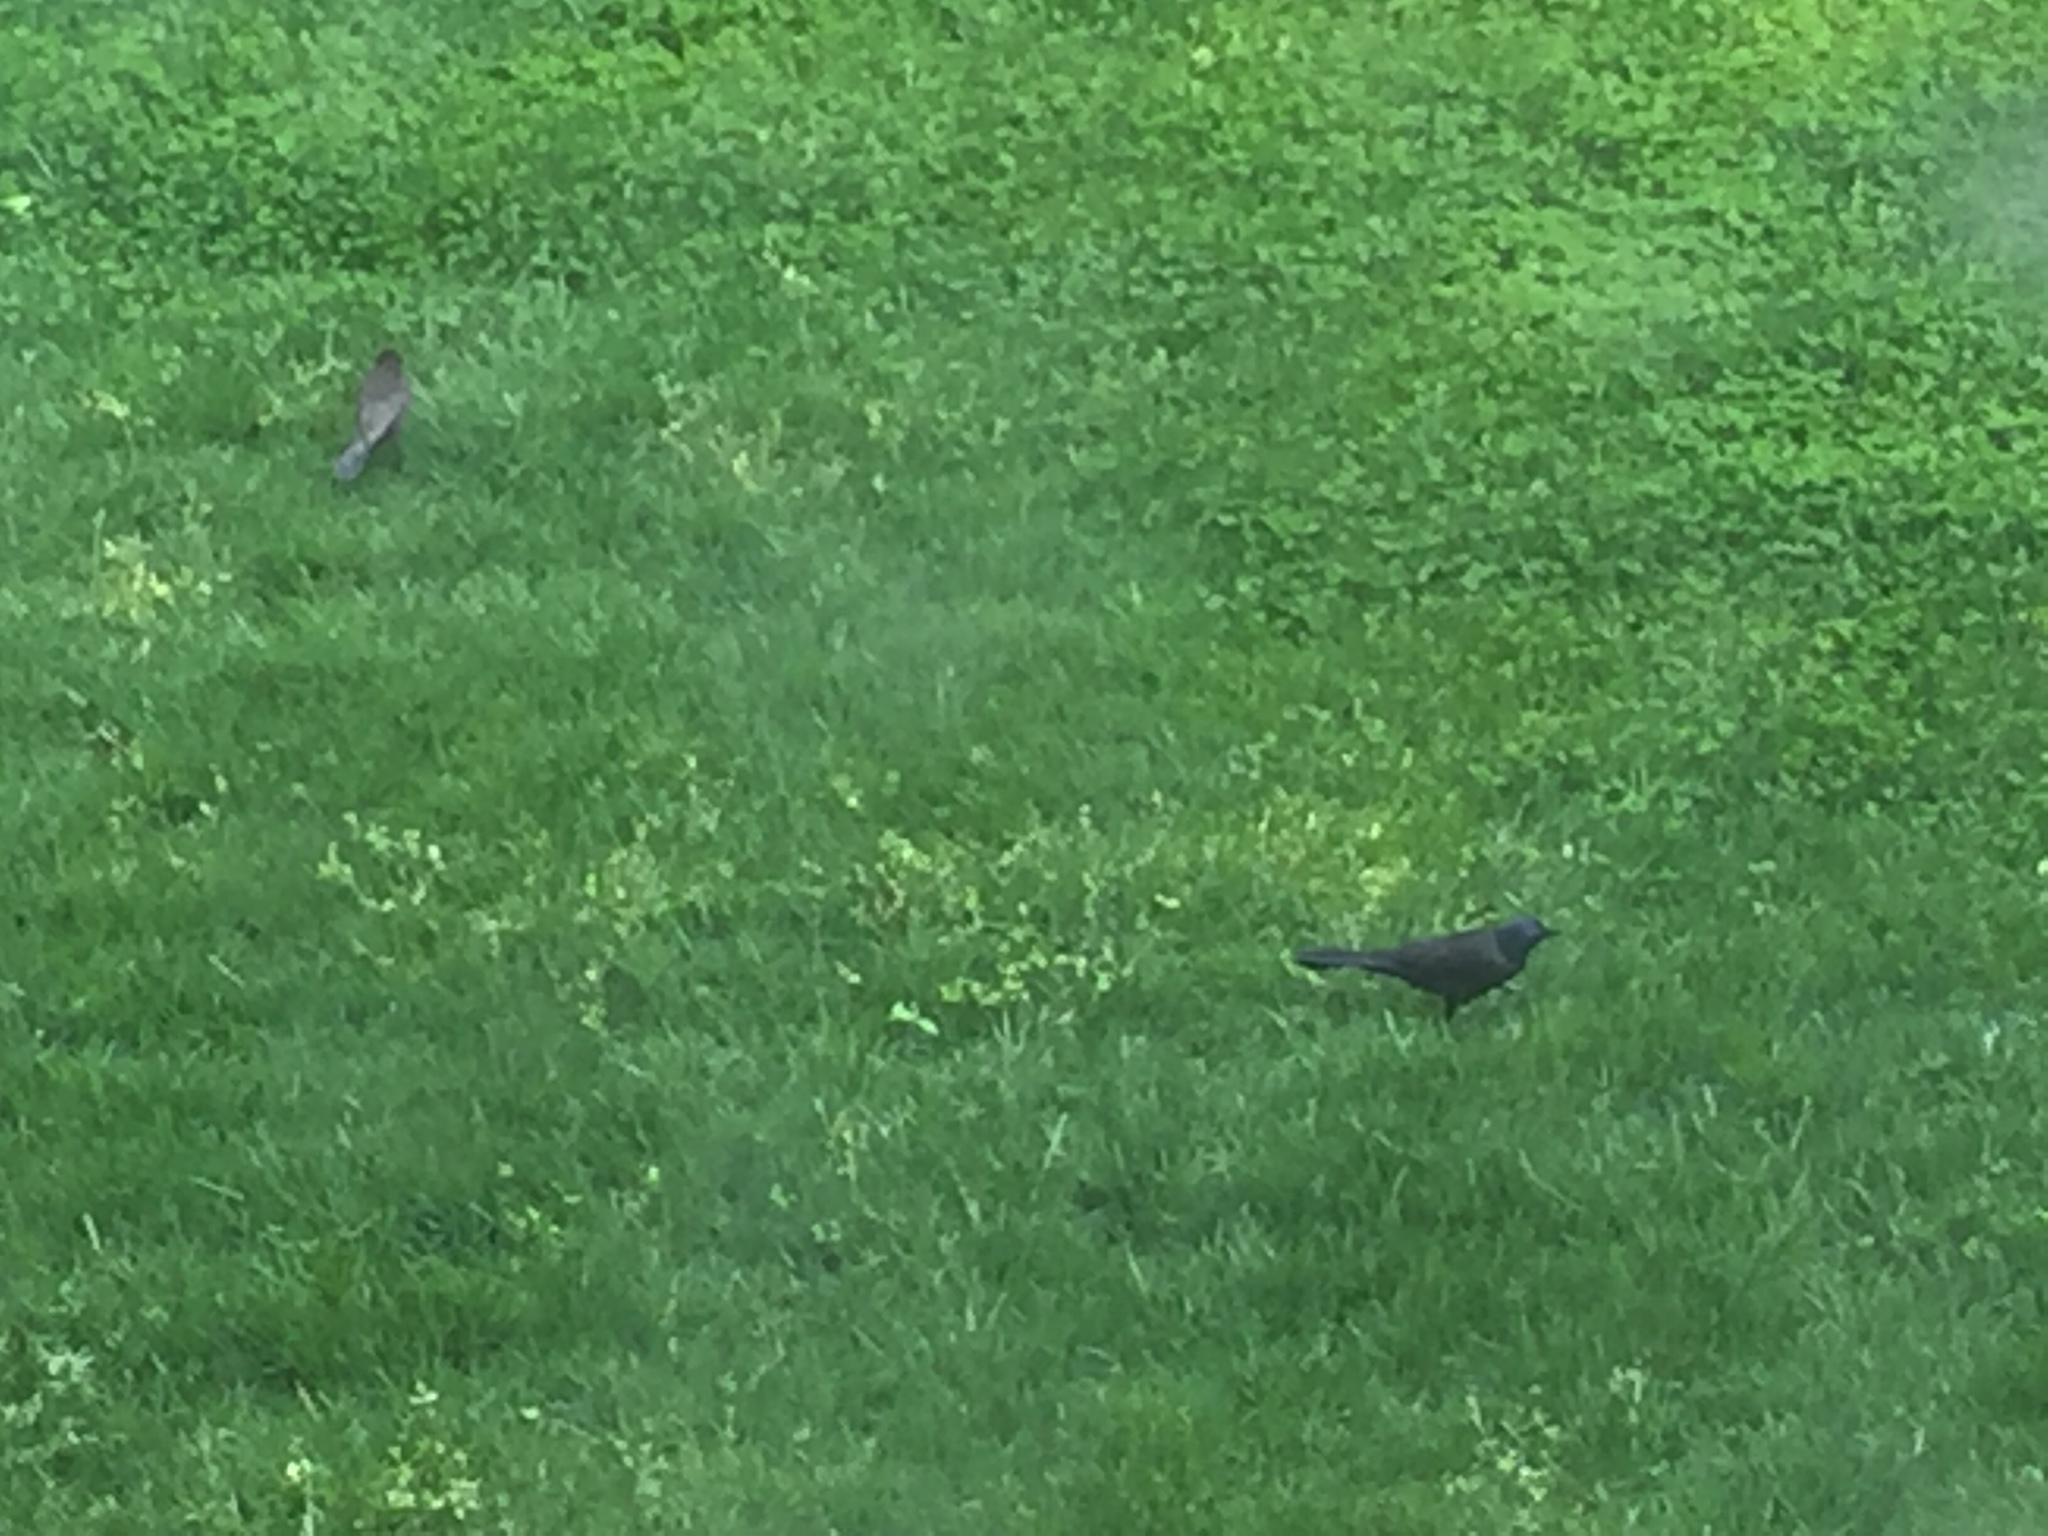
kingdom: Animalia
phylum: Chordata
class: Aves
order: Passeriformes
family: Icteridae
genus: Quiscalus
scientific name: Quiscalus quiscula
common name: Common grackle
